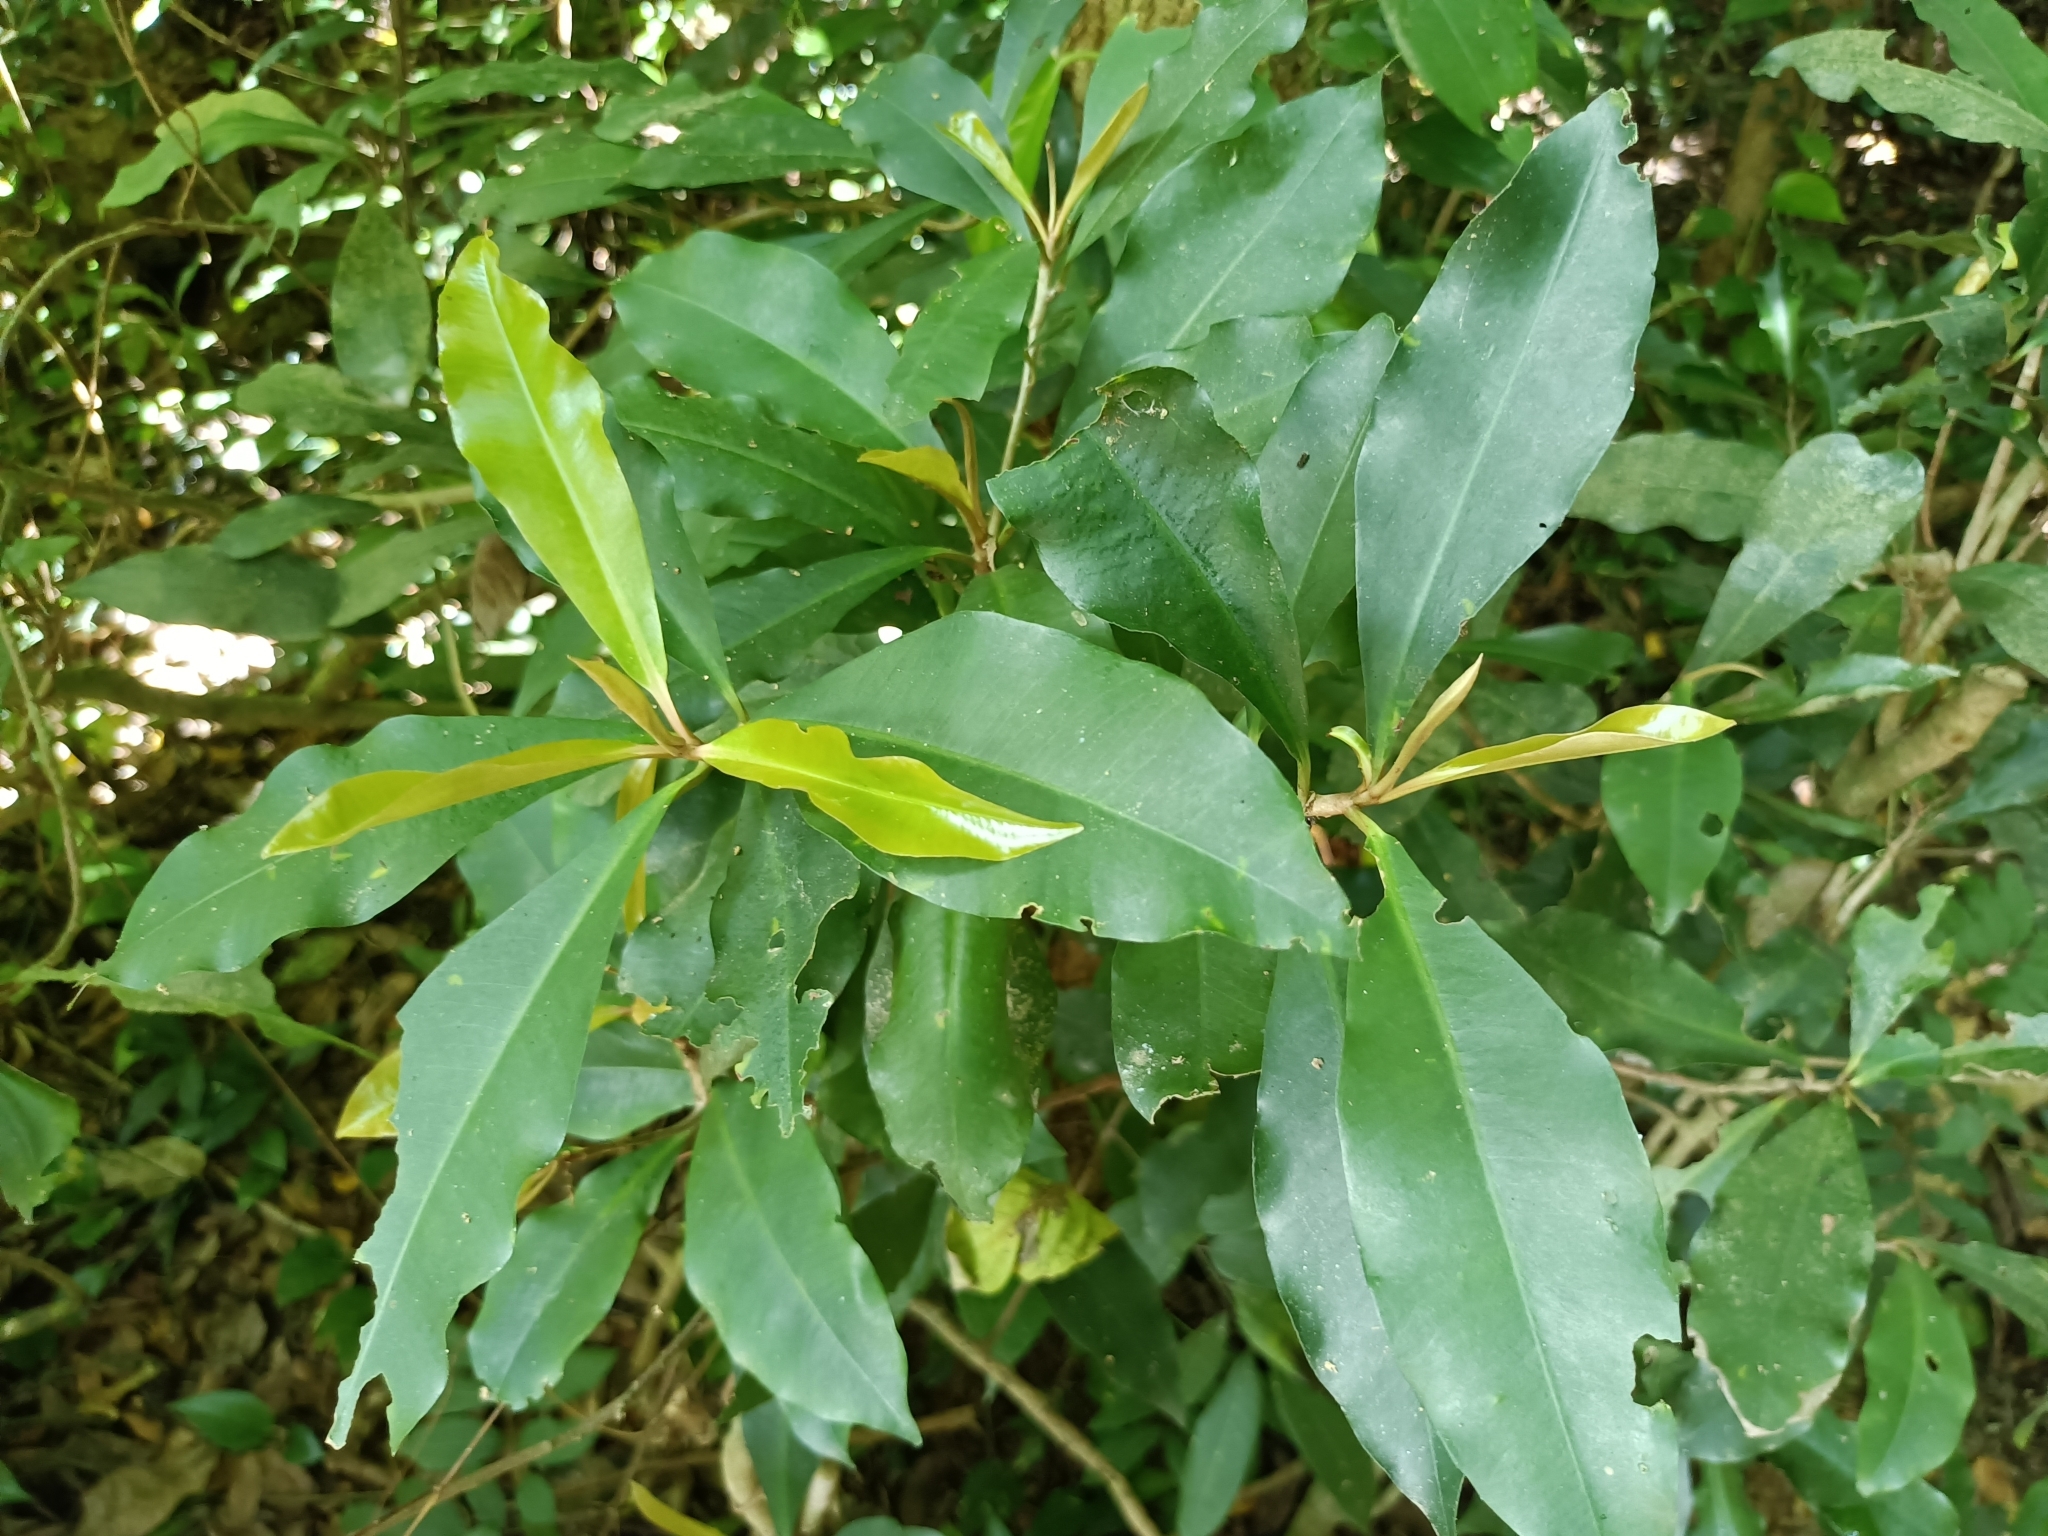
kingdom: Plantae
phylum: Tracheophyta
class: Magnoliopsida
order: Ericales
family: Primulaceae
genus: Ardisia
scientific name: Ardisia sieboldii
